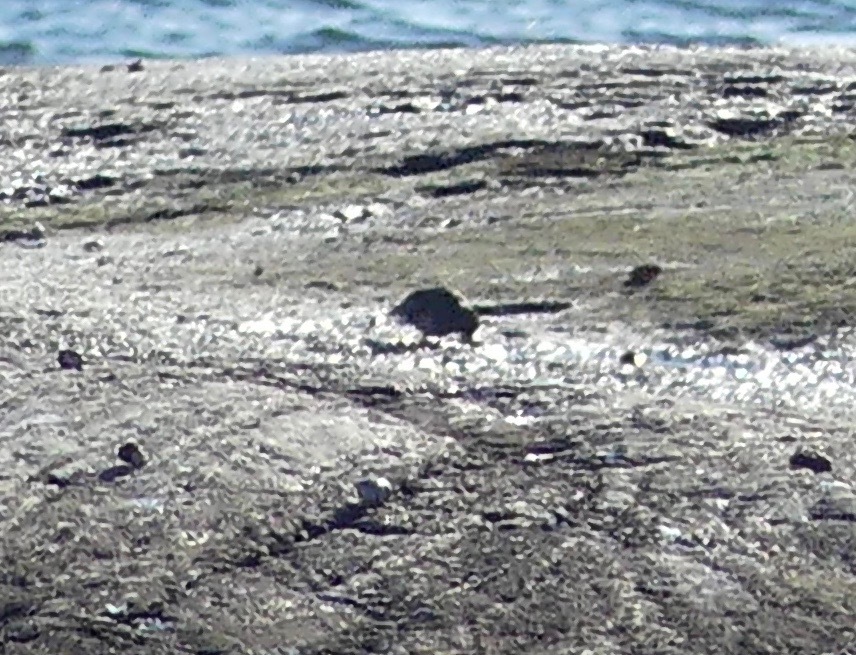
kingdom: Animalia
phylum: Chordata
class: Aves
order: Charadriiformes
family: Scolopacidae
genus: Calidris
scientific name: Calidris maritima
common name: Purple sandpiper
